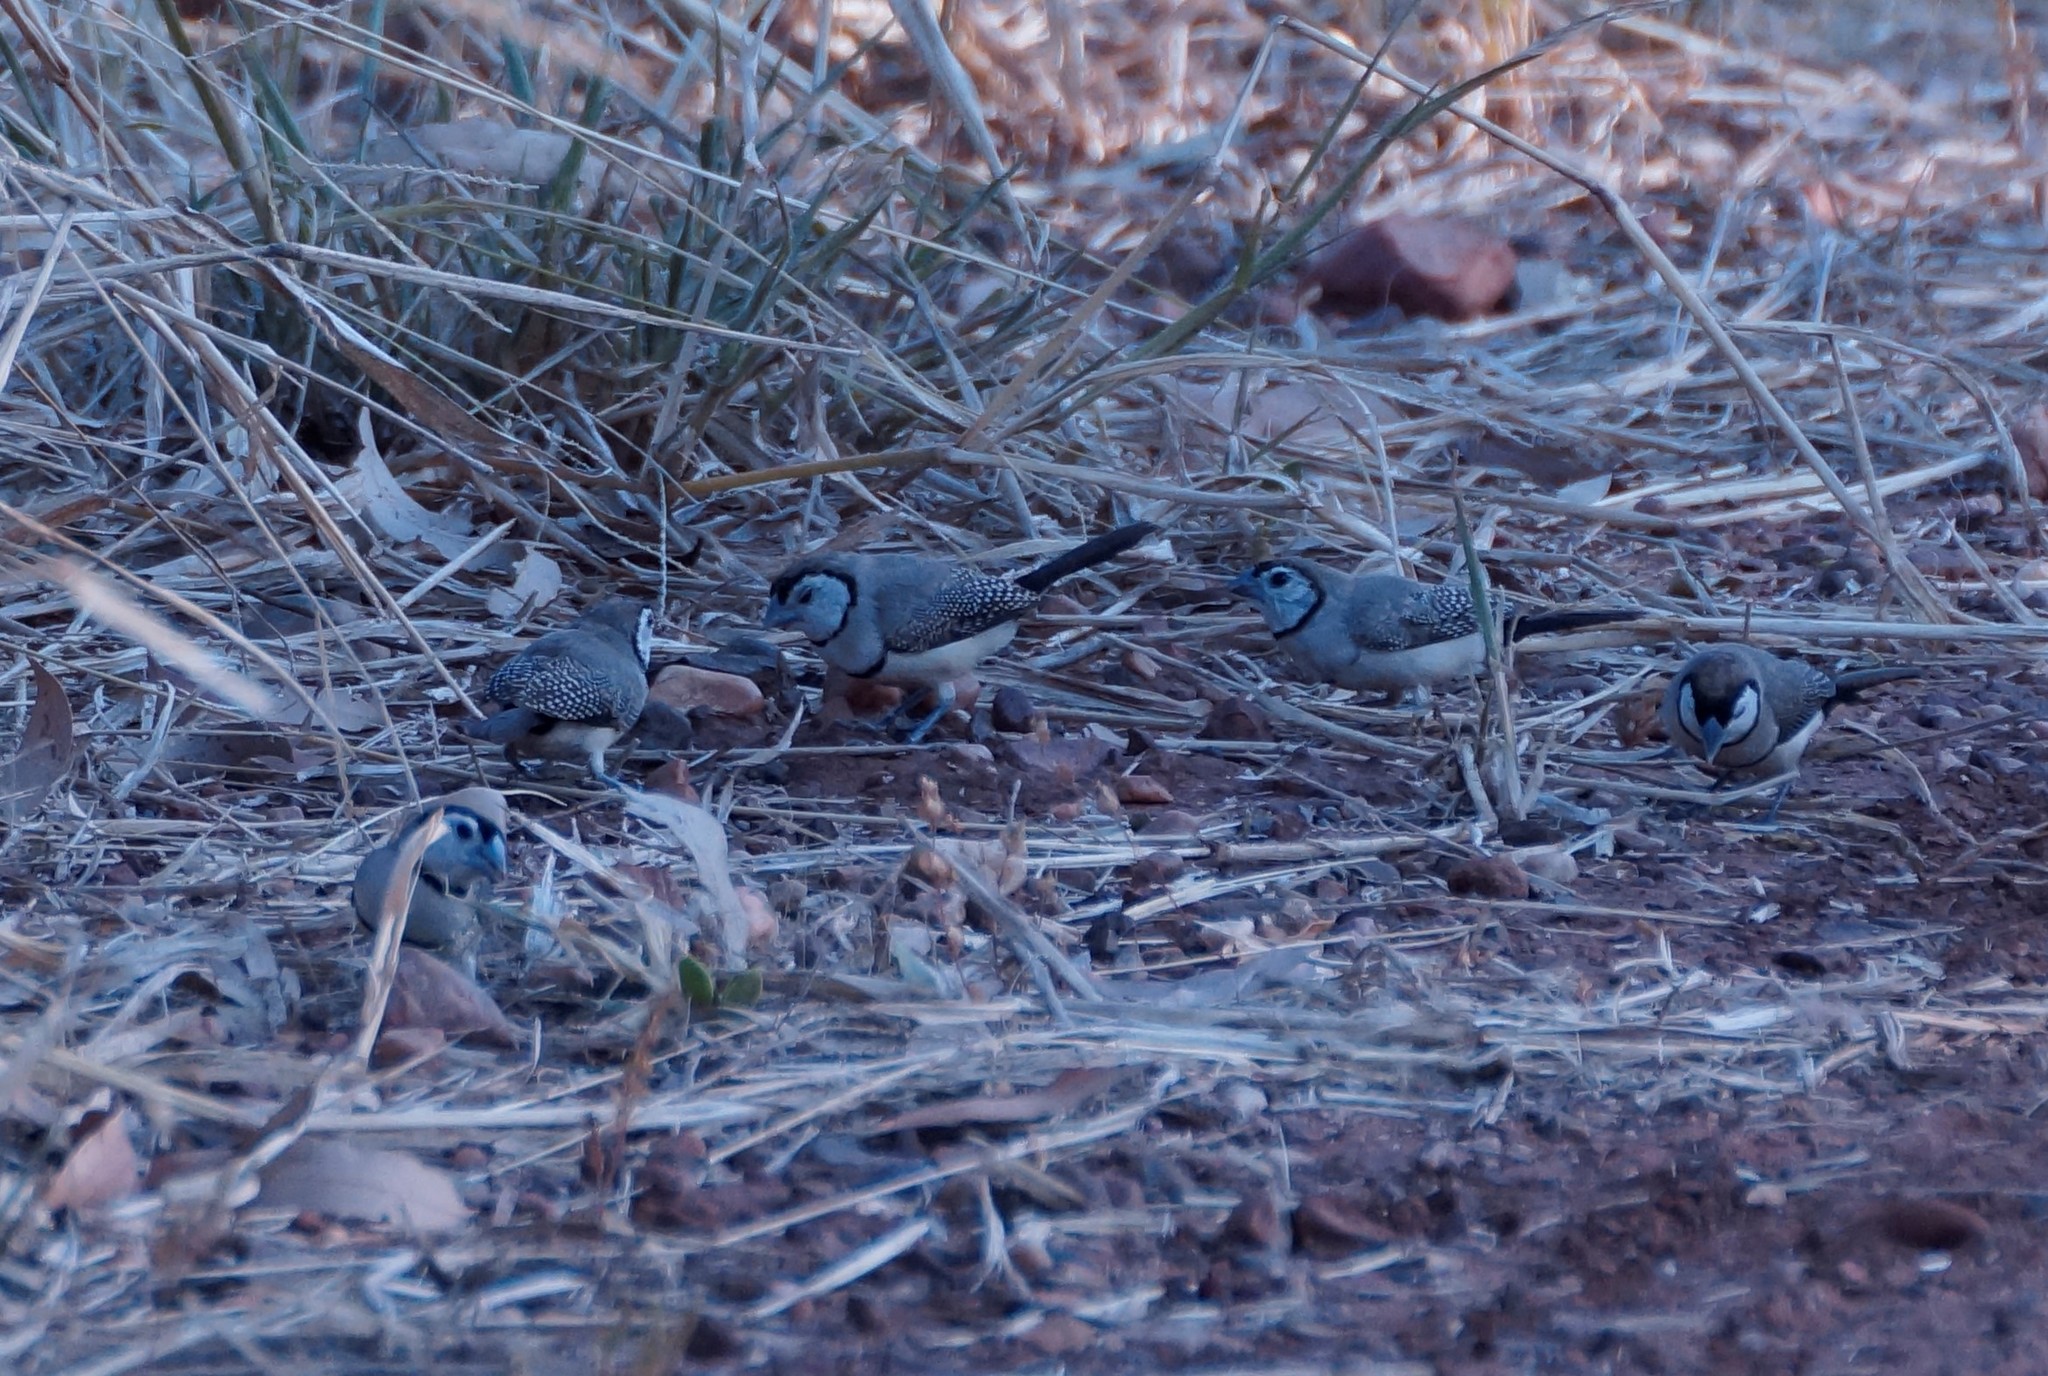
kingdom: Animalia
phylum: Chordata
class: Aves
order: Passeriformes
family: Estrildidae
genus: Taeniopygia
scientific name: Taeniopygia bichenovii
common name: Double-barred finch
